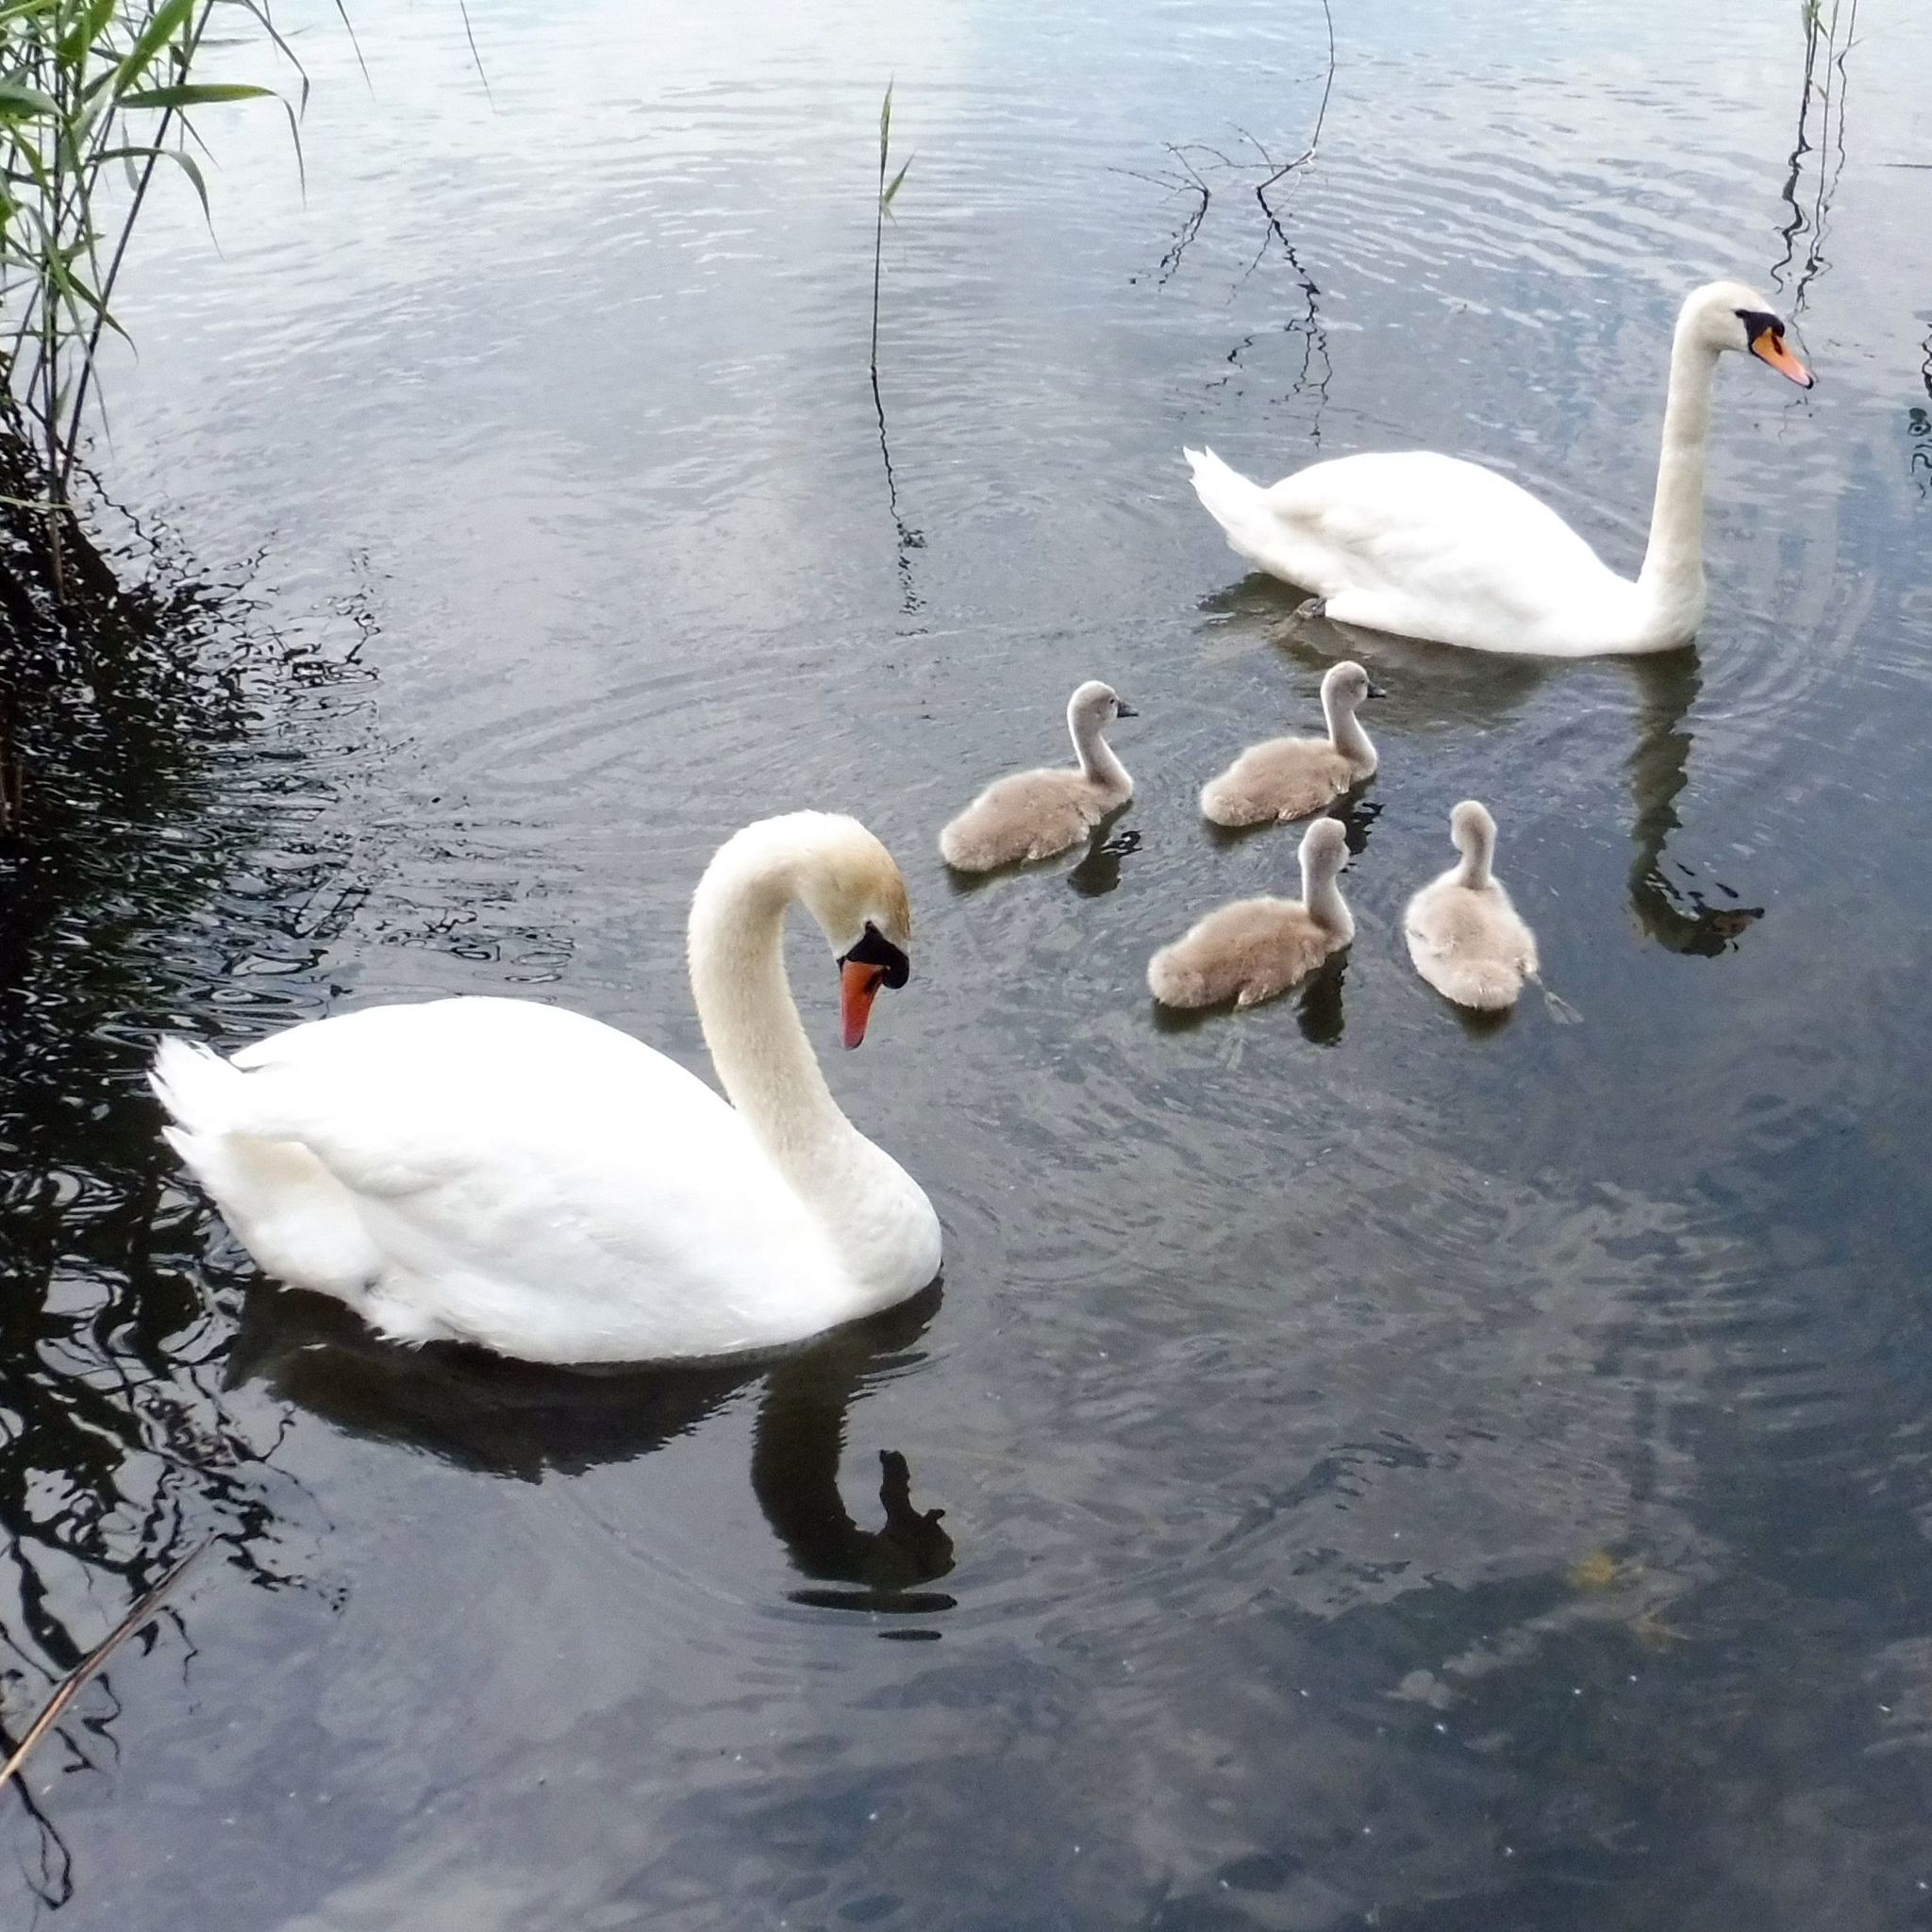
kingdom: Animalia
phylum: Chordata
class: Aves
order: Anseriformes
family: Anatidae
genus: Cygnus
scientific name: Cygnus olor
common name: Mute swan
